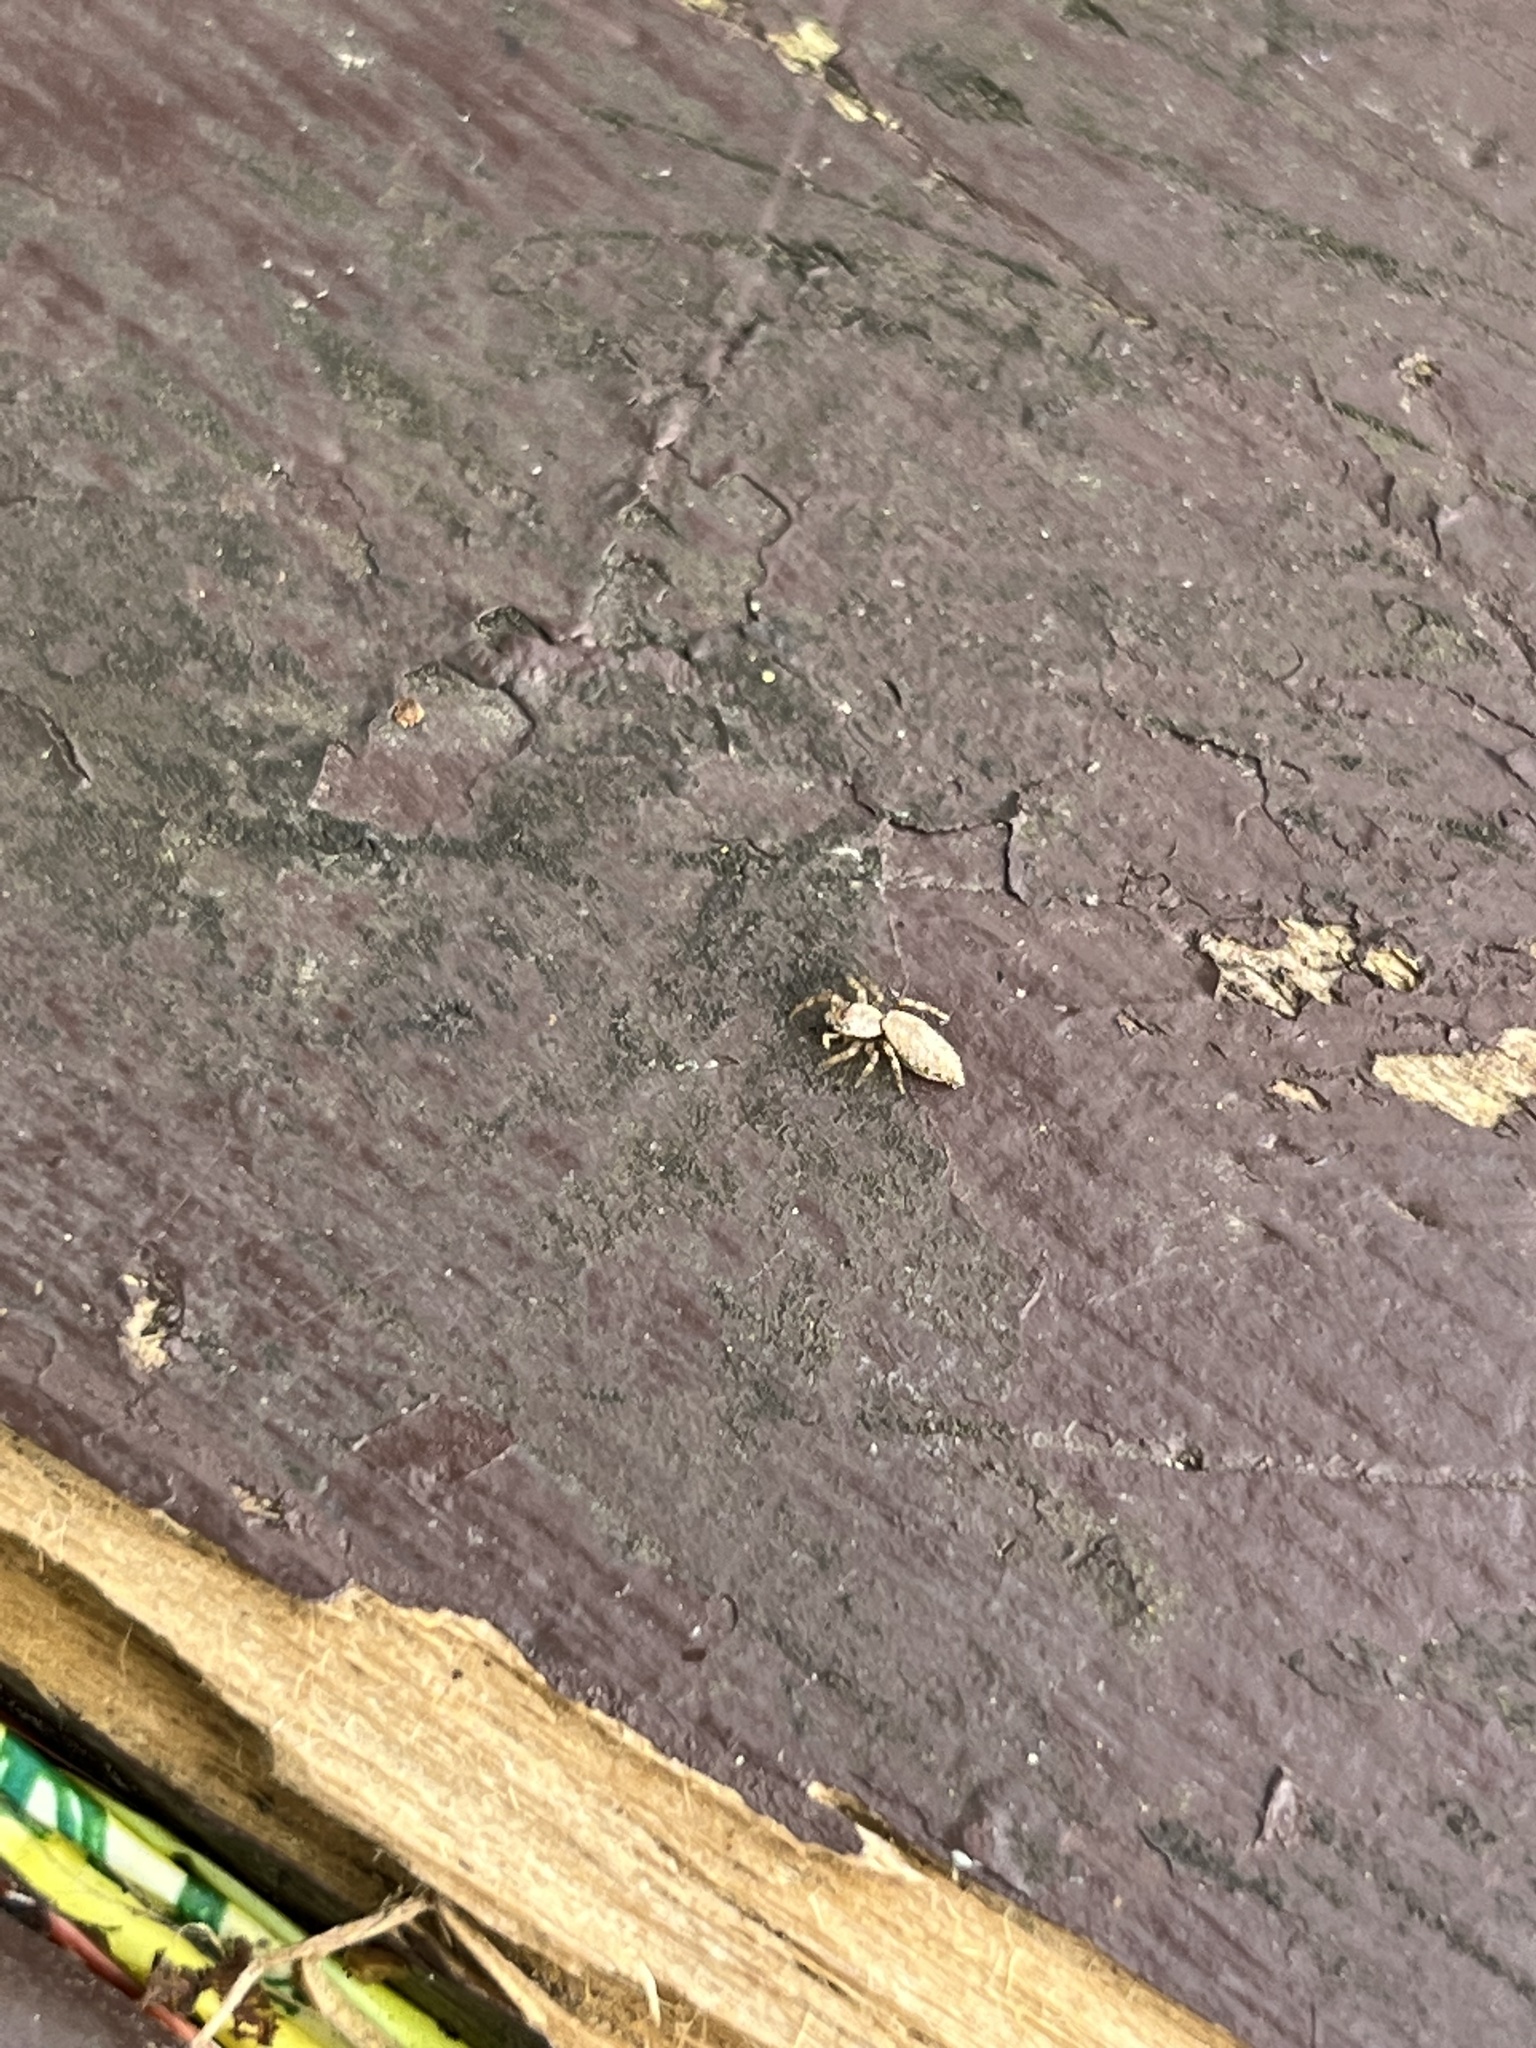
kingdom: Animalia
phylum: Arthropoda
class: Arachnida
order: Araneae
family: Salticidae
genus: Helpis
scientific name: Helpis minitabunda
